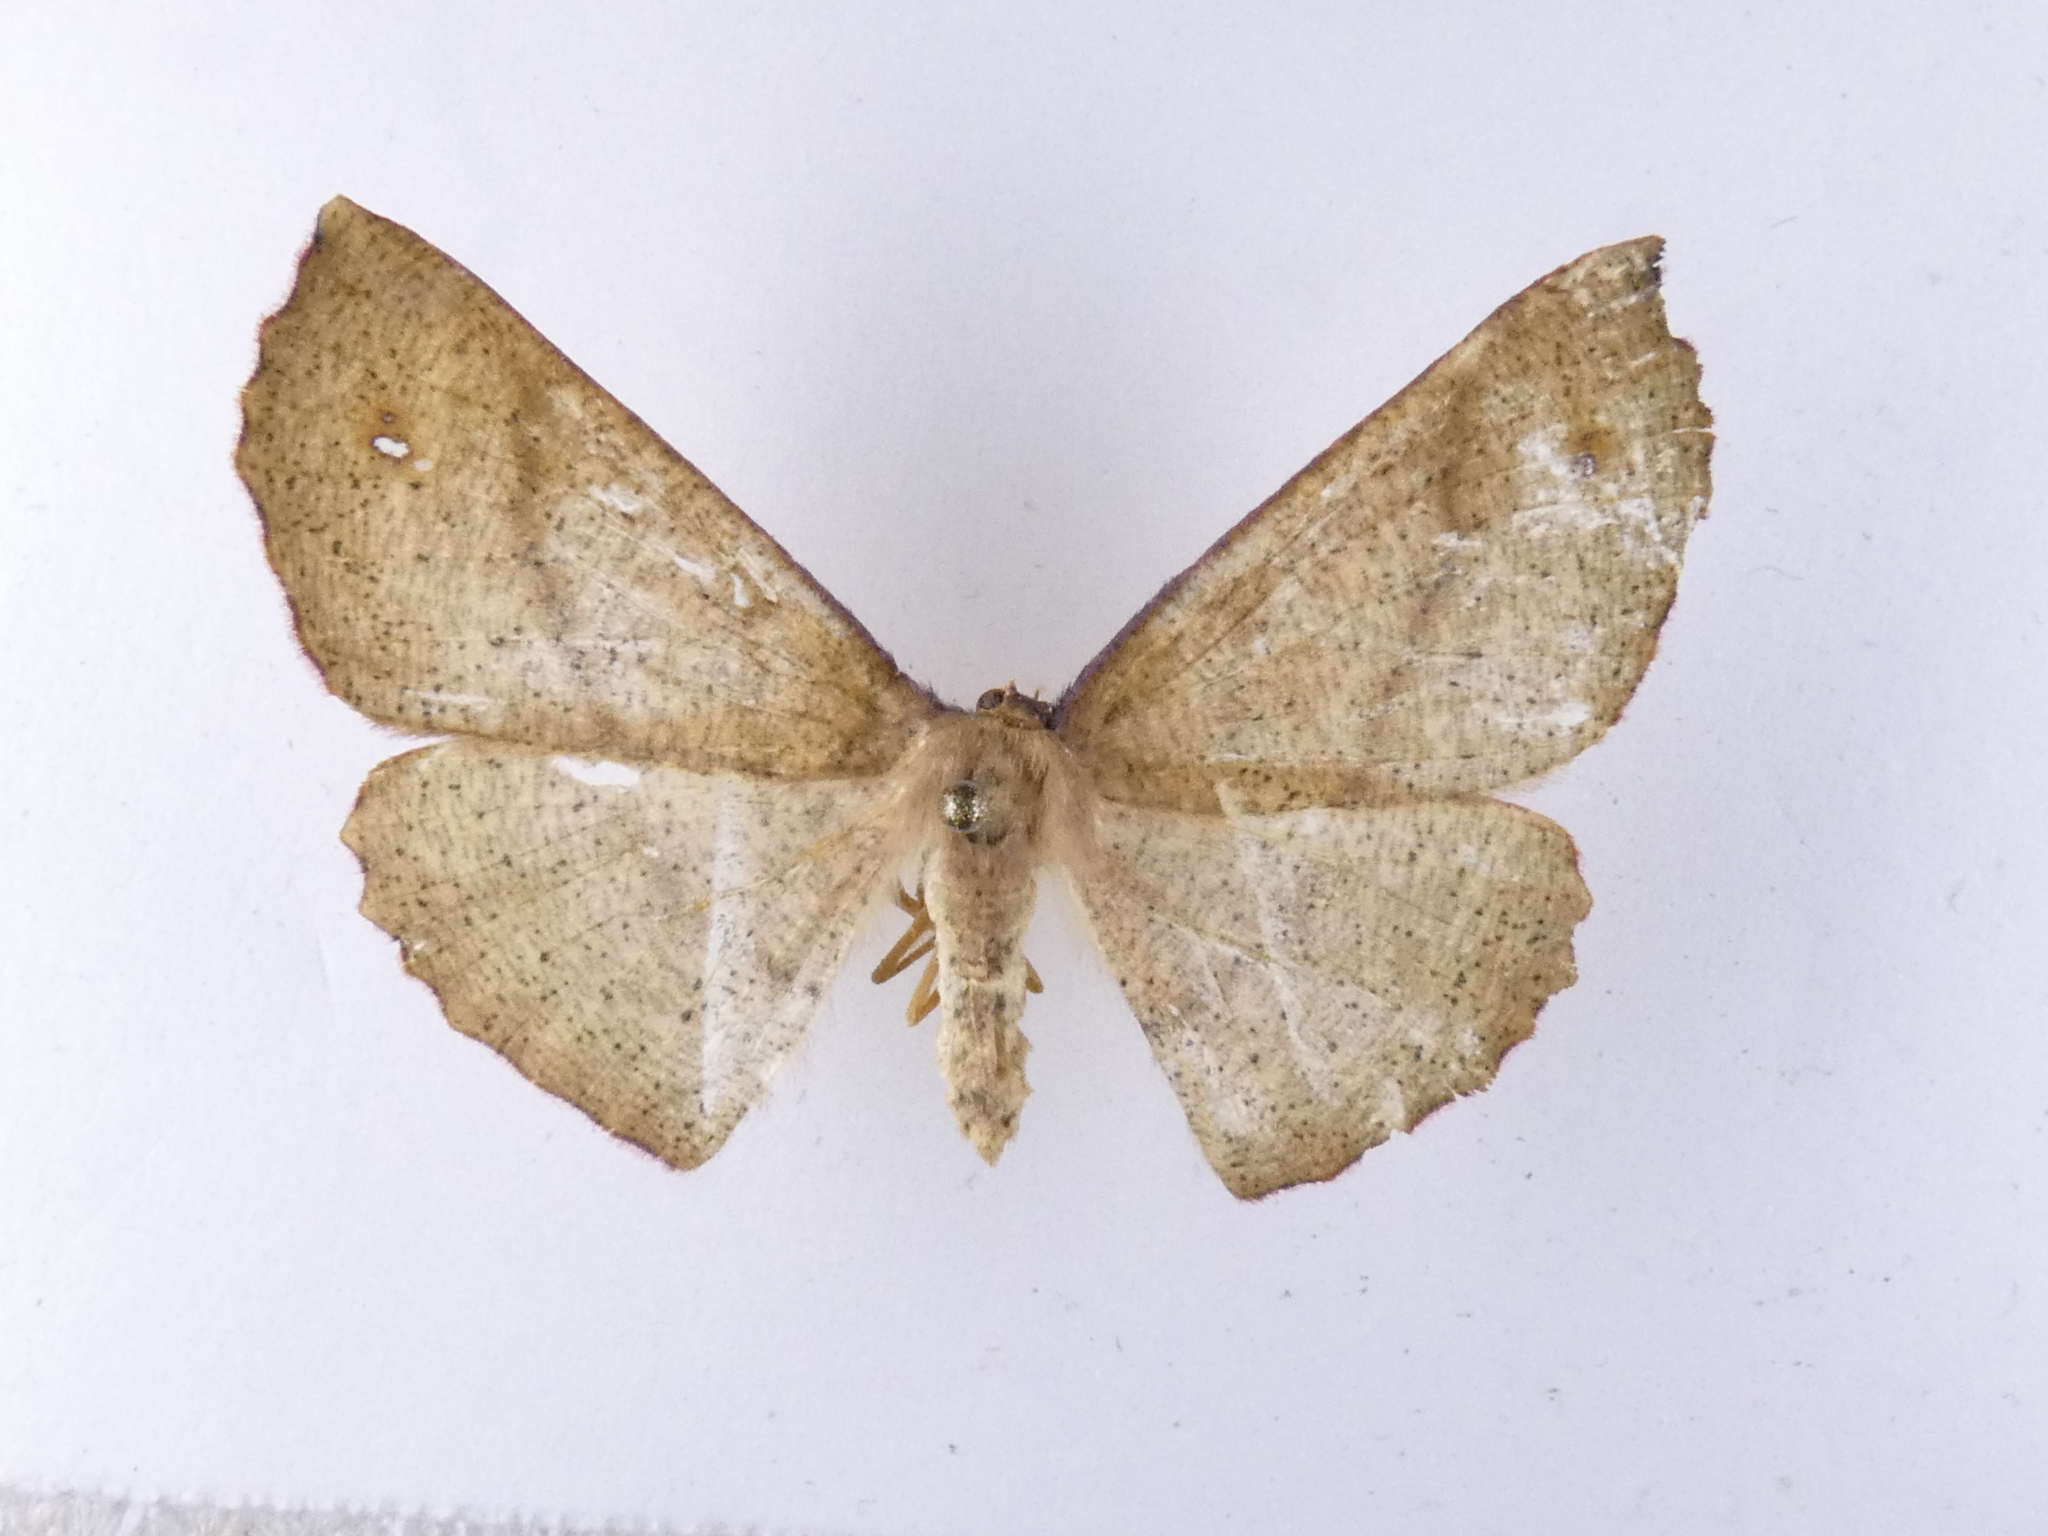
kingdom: Animalia
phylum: Arthropoda
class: Insecta
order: Lepidoptera
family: Geometridae
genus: Xyridacma
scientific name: Xyridacma alectoraria
